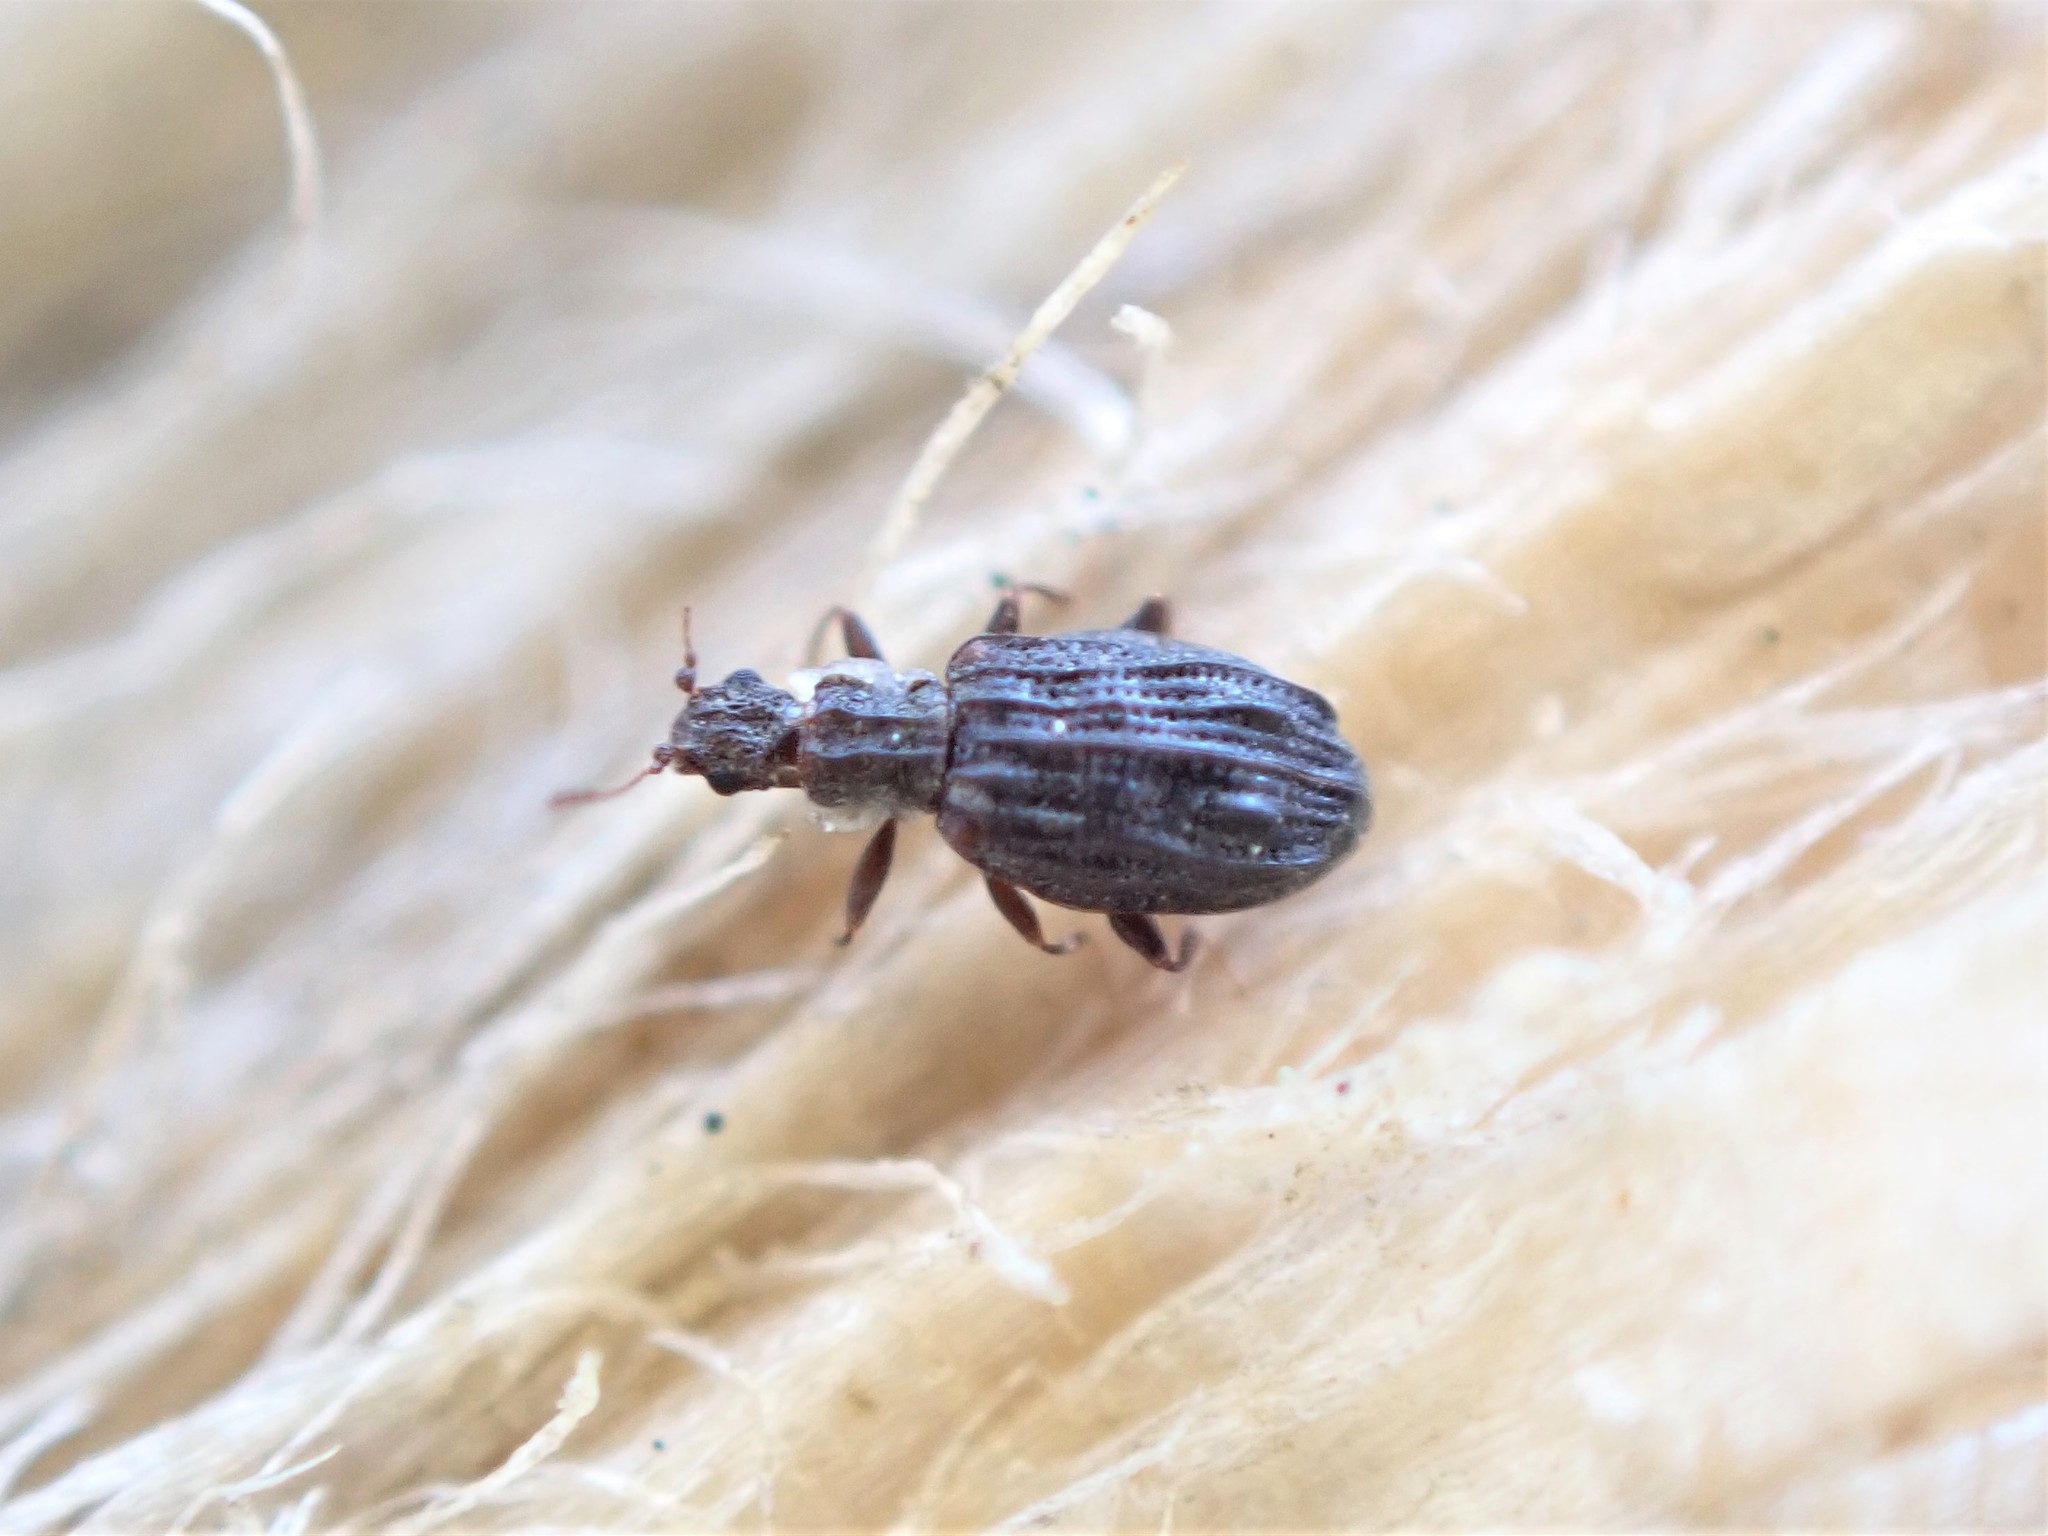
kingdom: Animalia
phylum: Arthropoda
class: Insecta
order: Coleoptera
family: Latridiidae
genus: Cartodere
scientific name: Cartodere nodifer
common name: Humpbacked minute scavenger beetle
